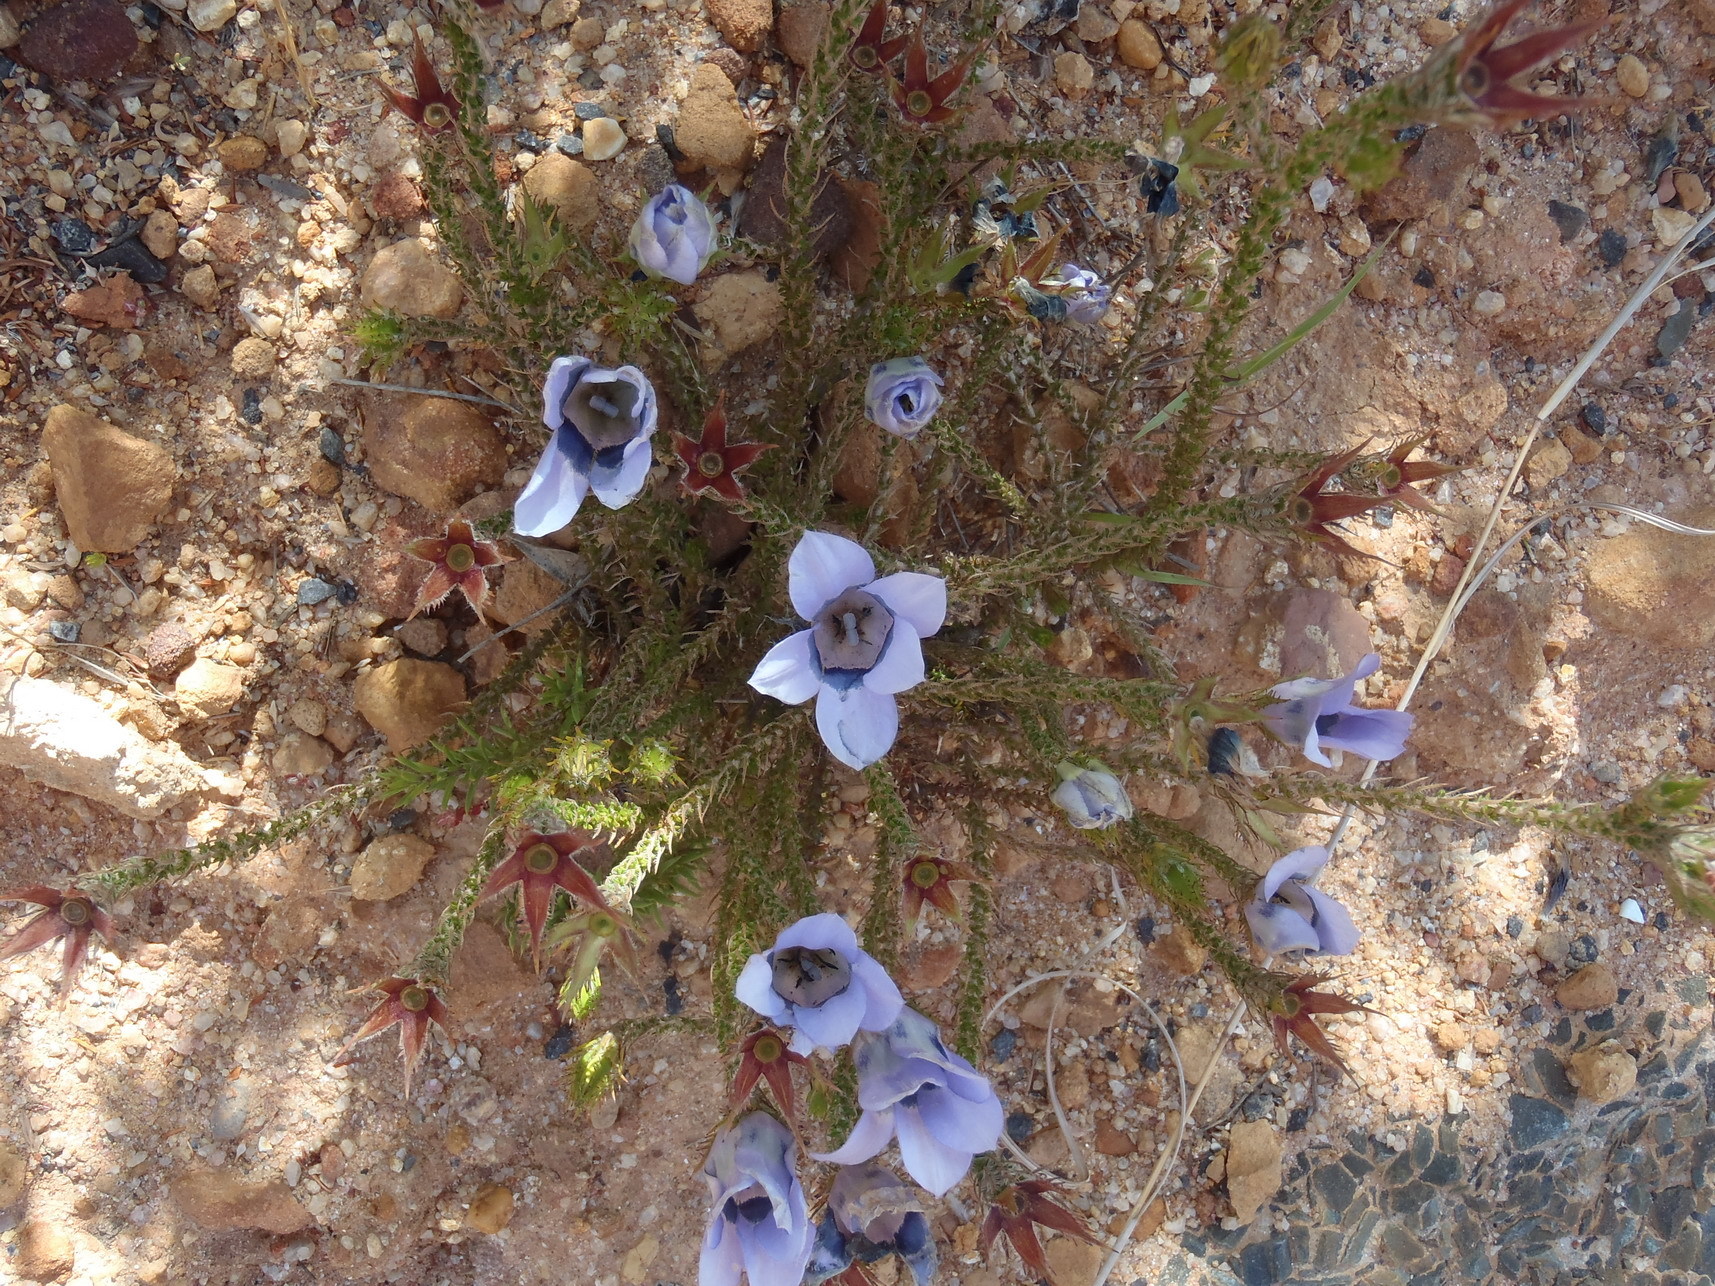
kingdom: Plantae
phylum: Tracheophyta
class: Magnoliopsida
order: Asterales
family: Campanulaceae
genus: Roella
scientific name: Roella ciliata
